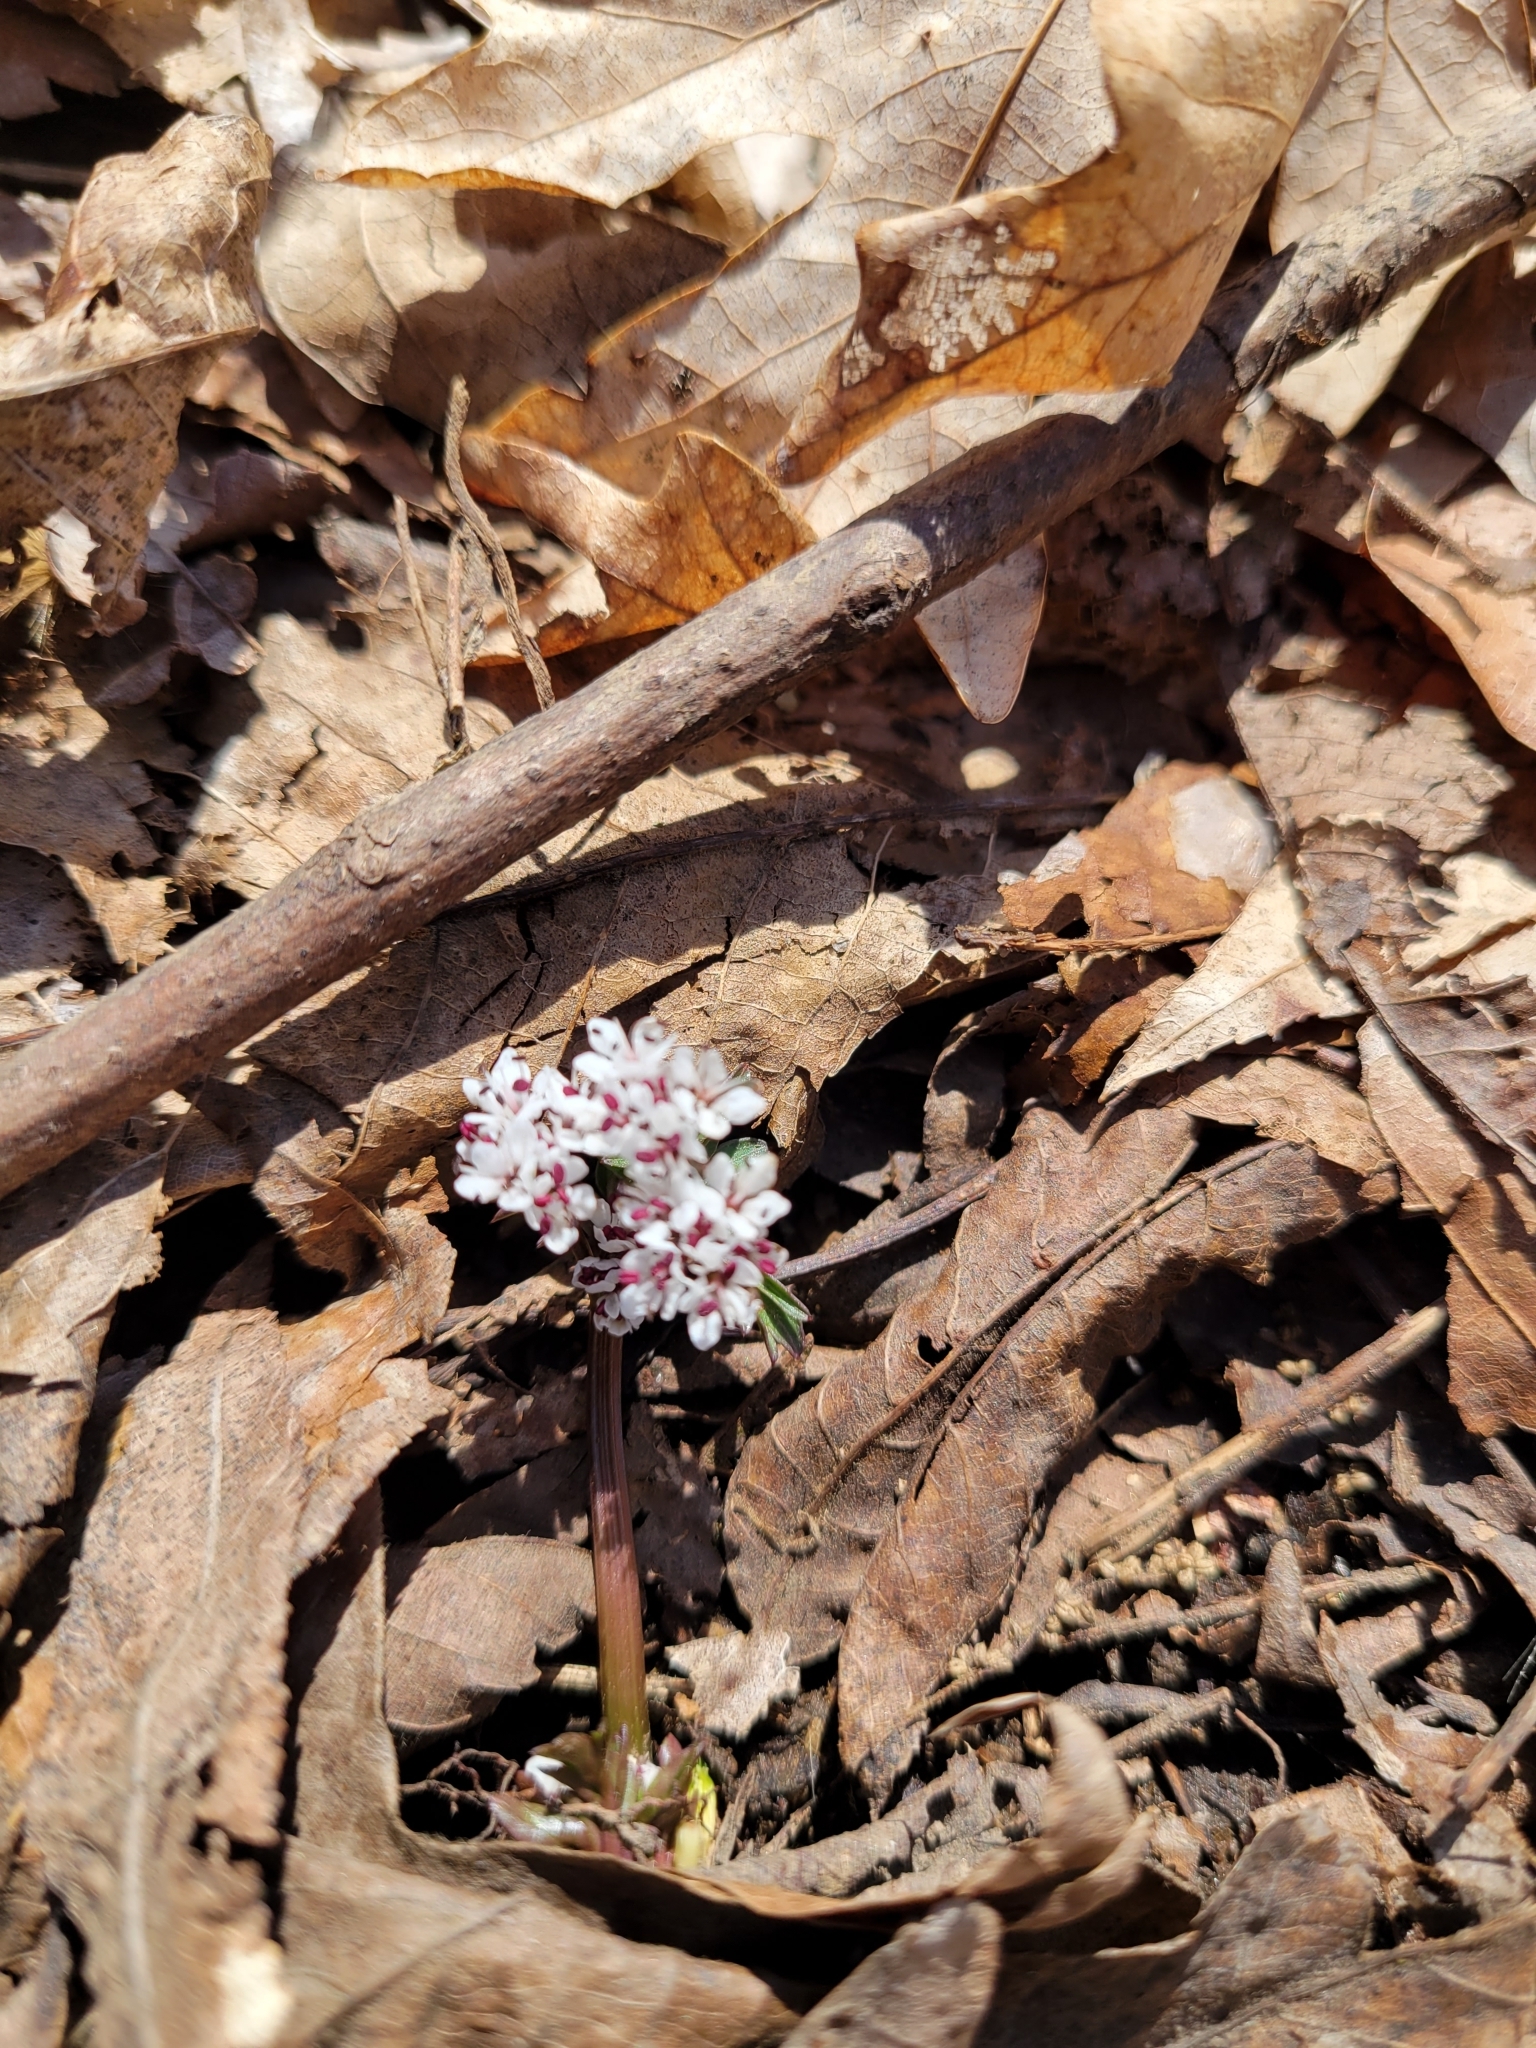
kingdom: Plantae
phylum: Tracheophyta
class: Magnoliopsida
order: Apiales
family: Apiaceae
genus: Erigenia
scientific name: Erigenia bulbosa
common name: Pepper-and-salt
